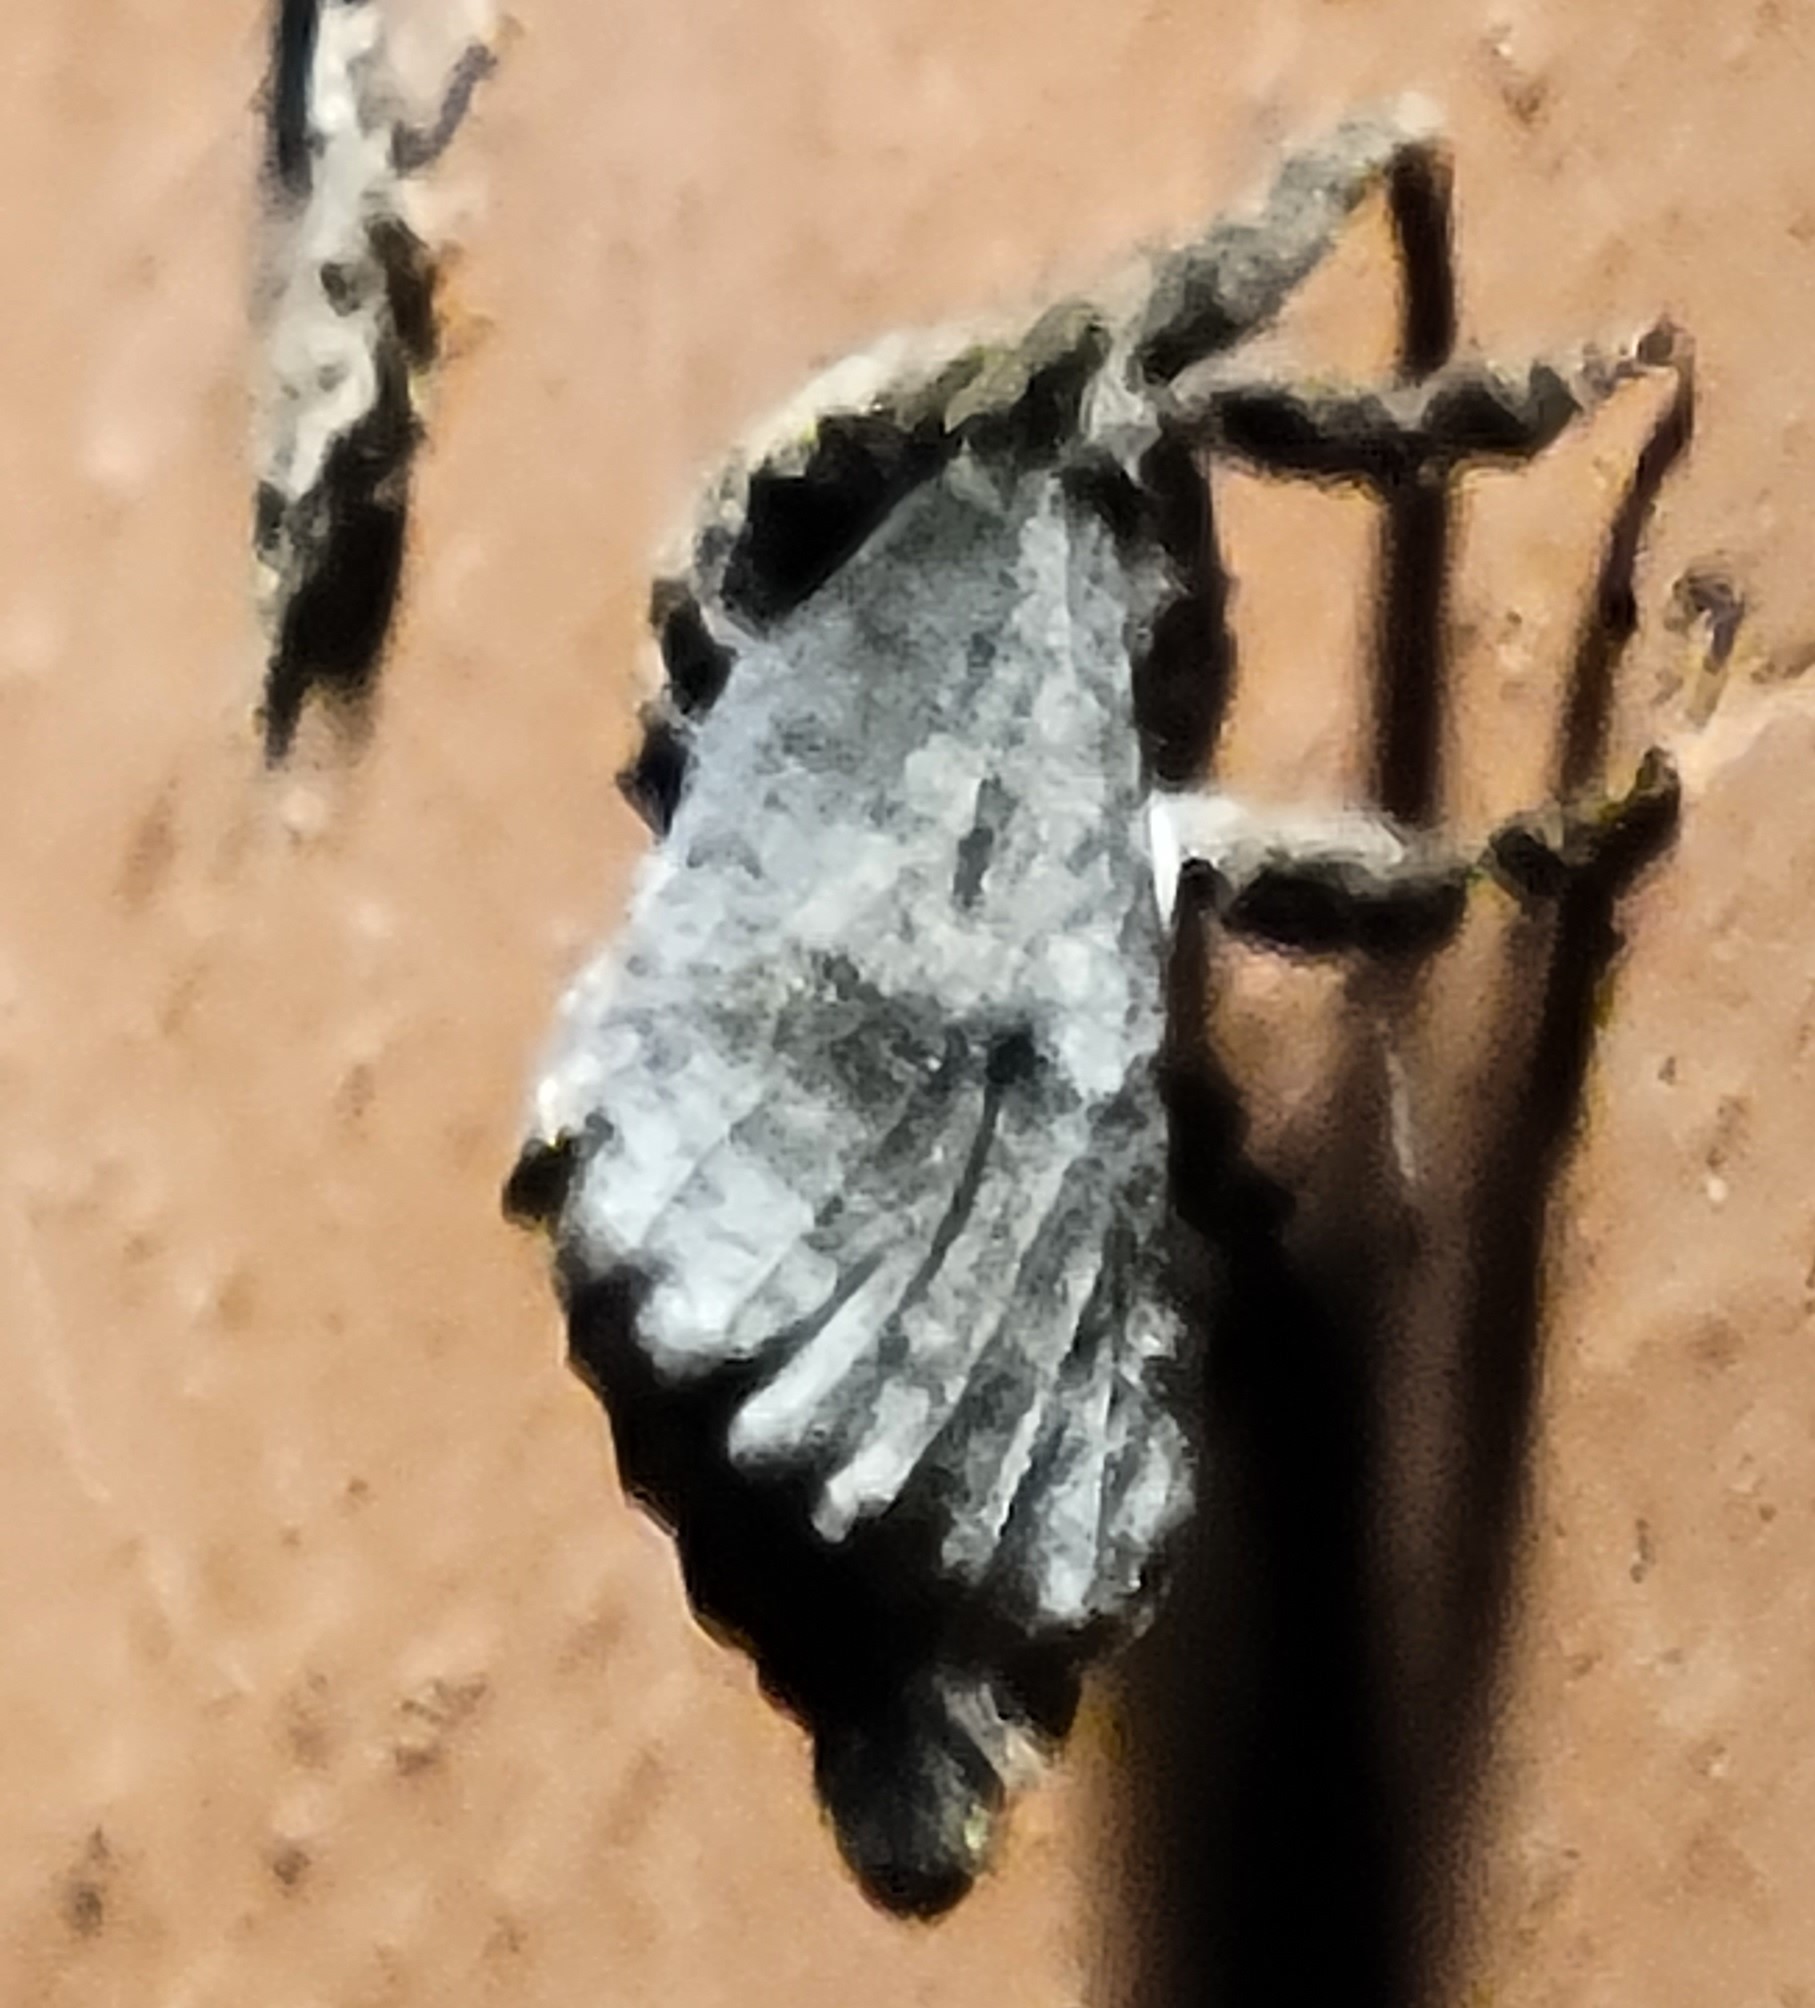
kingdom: Animalia
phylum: Arthropoda
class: Insecta
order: Lepidoptera
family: Cossidae
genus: Givira
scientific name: Givira arbeloides
